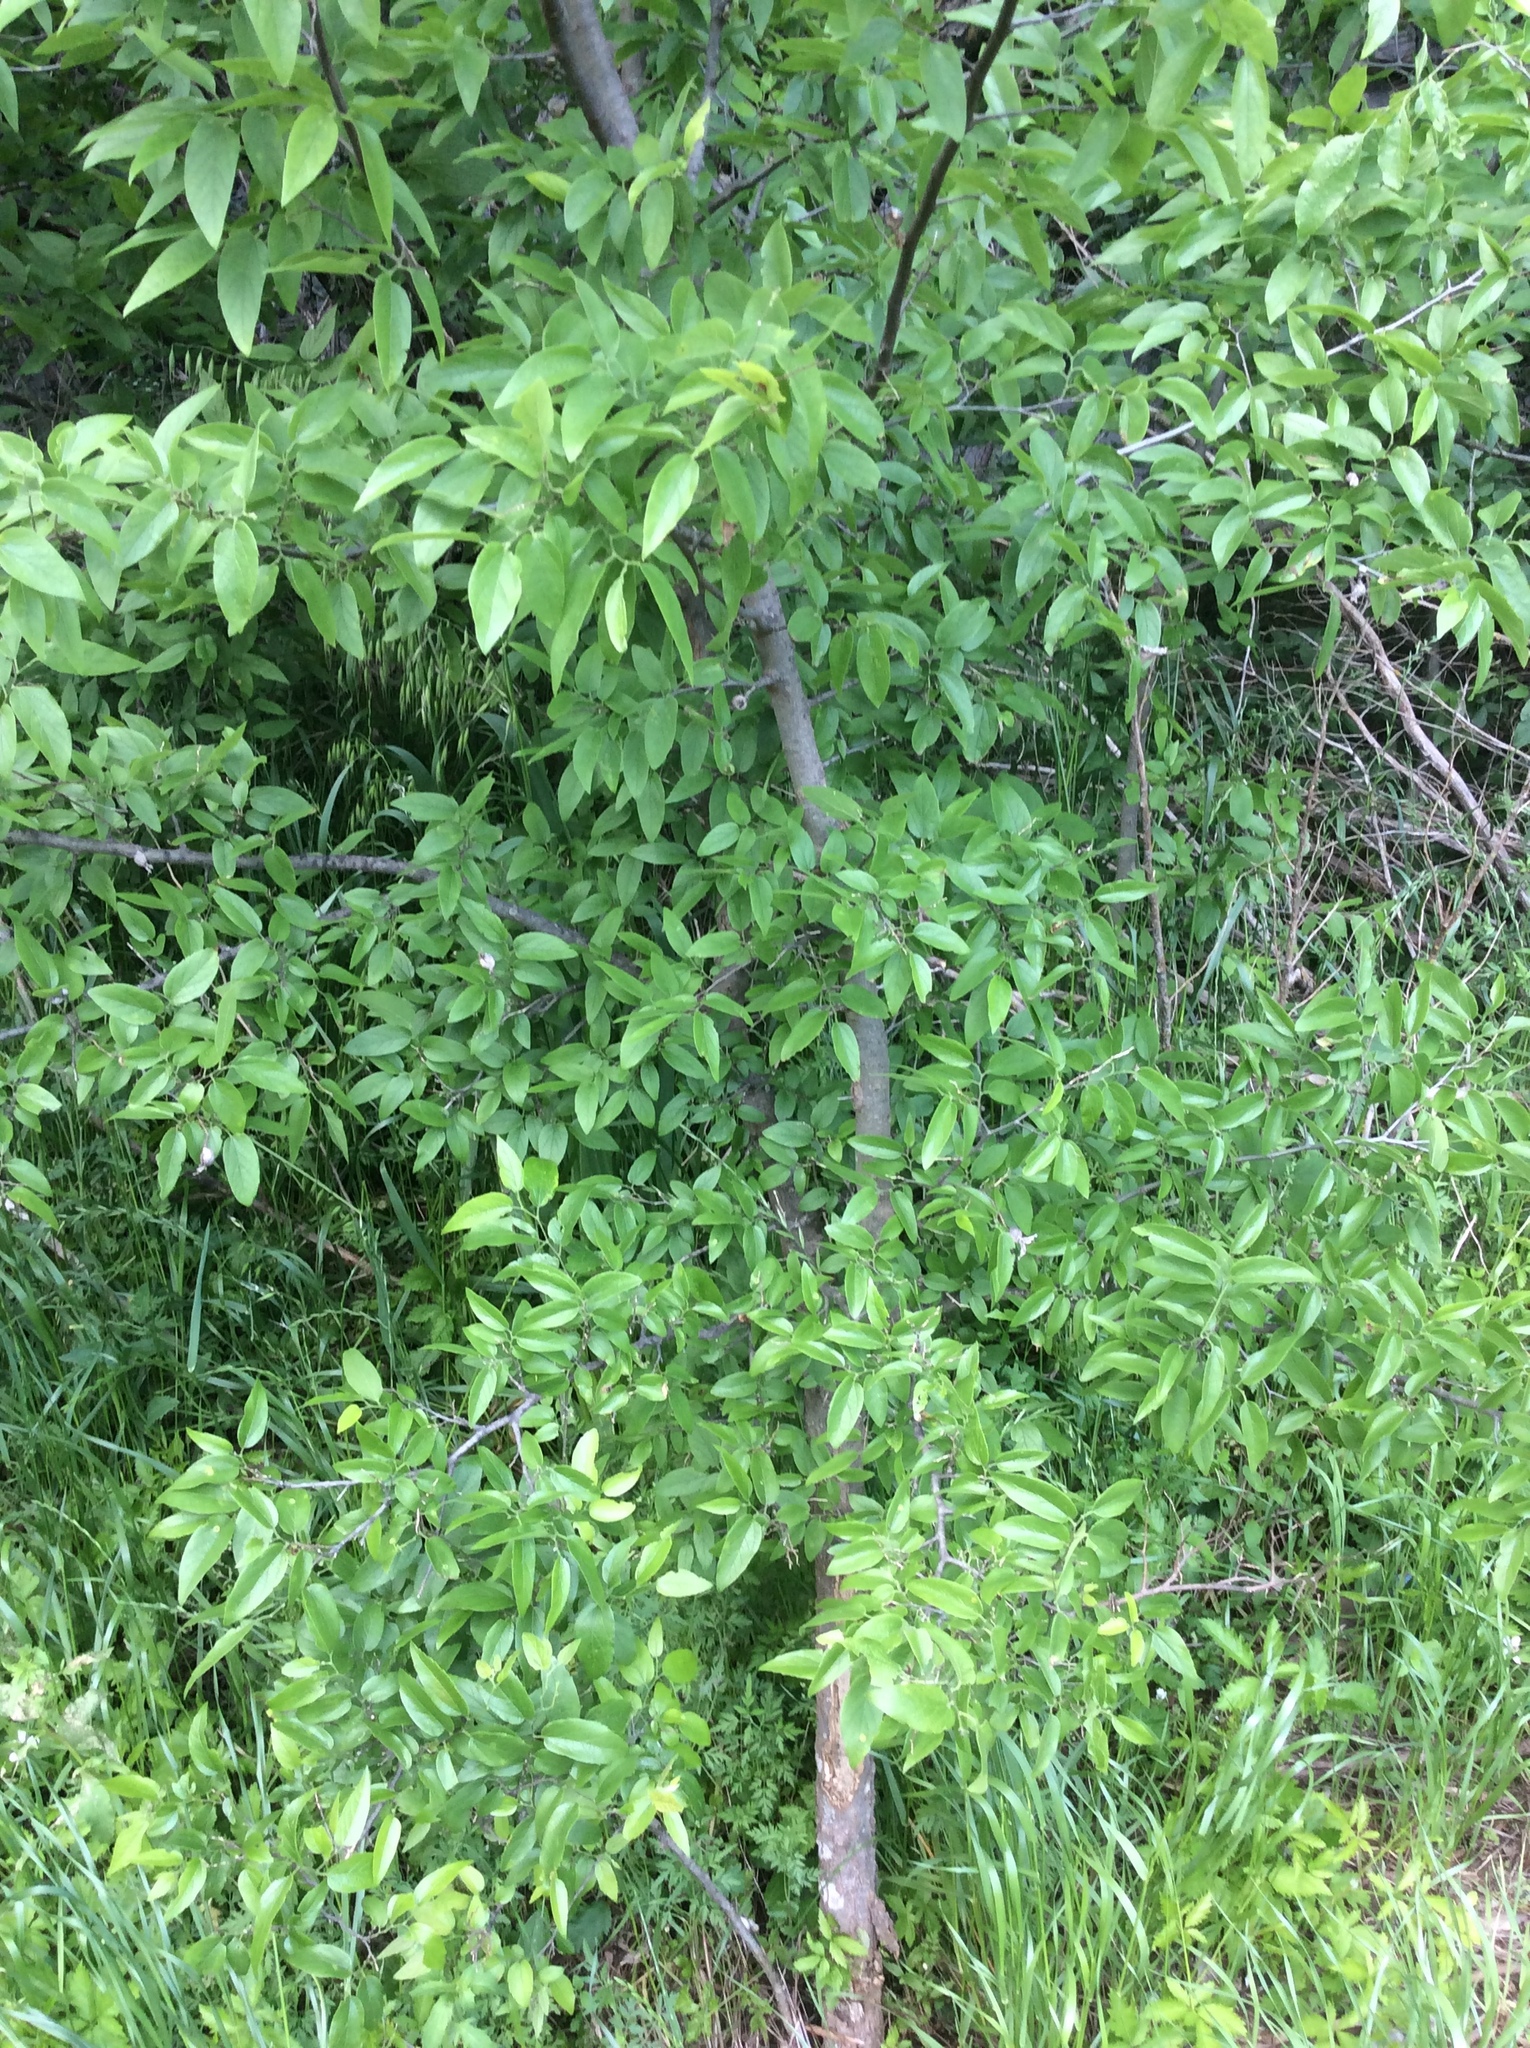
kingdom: Plantae
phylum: Tracheophyta
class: Magnoliopsida
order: Rosales
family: Cannabaceae
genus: Celtis
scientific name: Celtis laevigata
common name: Sugarberry
